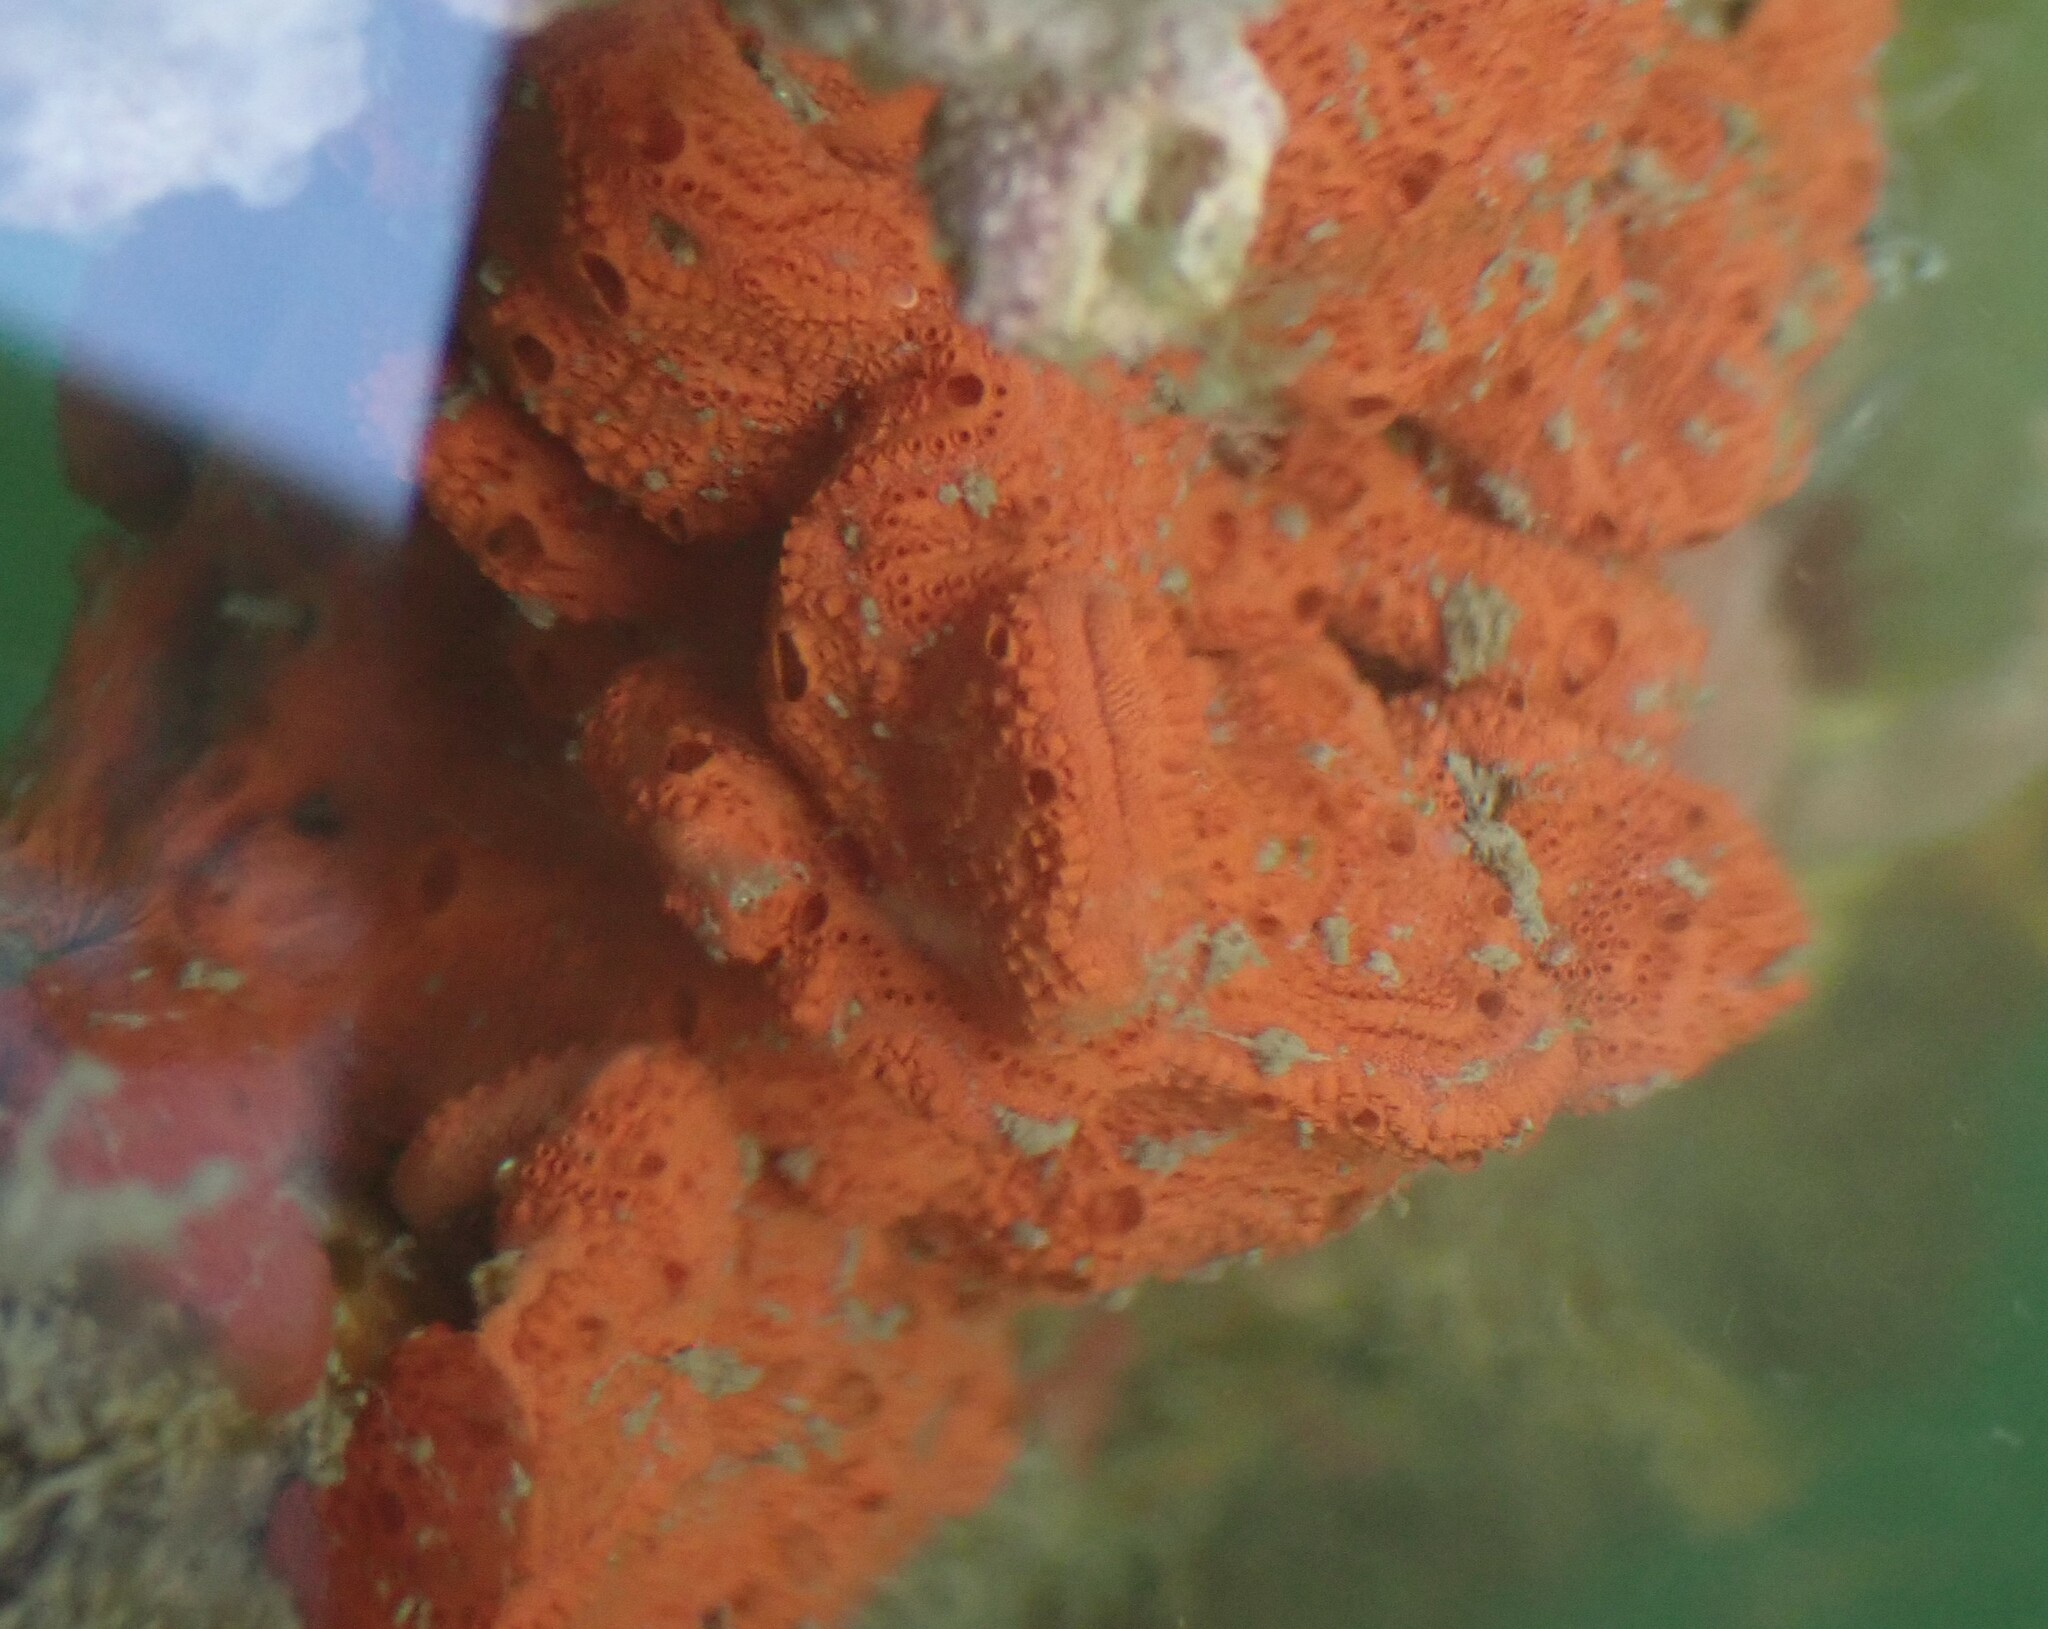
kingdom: Animalia
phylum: Chordata
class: Ascidiacea
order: Stolidobranchia
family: Styelidae
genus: Botrylloides
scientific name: Botrylloides violaceus
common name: Colonial sea squirt
